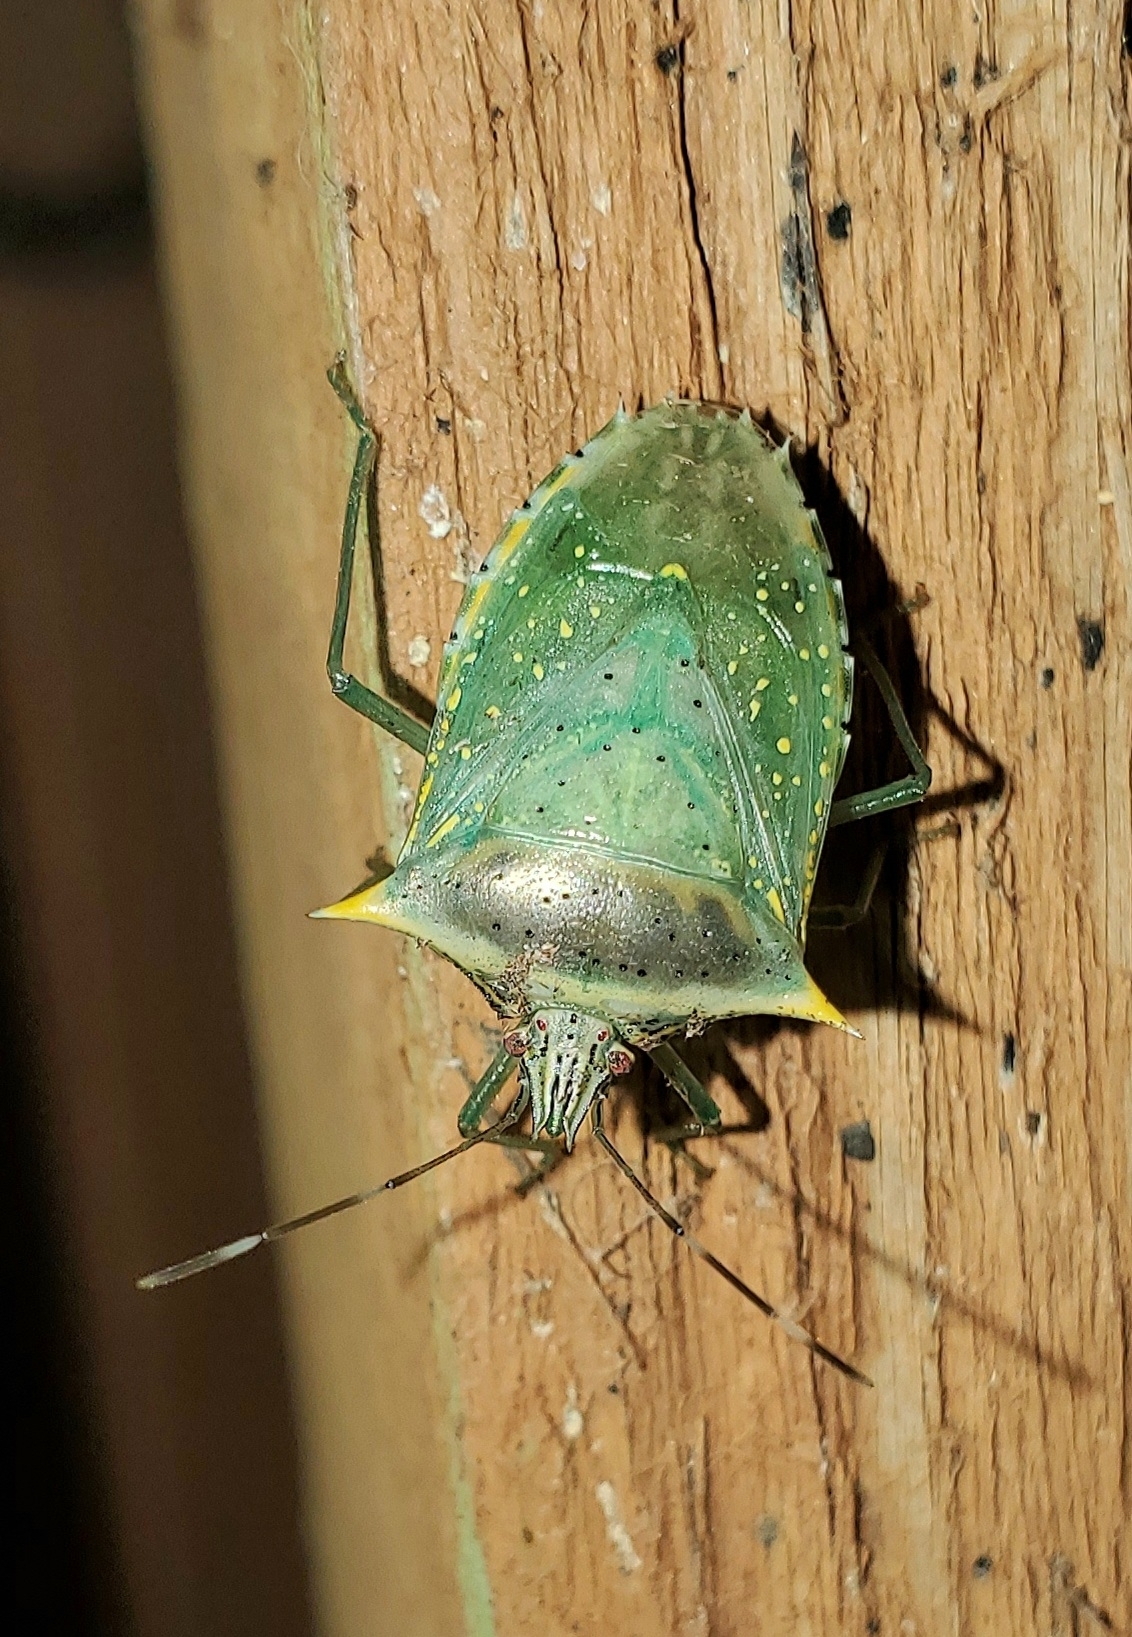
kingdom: Animalia
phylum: Arthropoda
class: Insecta
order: Hemiptera
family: Pentatomidae
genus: Arvelius
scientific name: Arvelius albopunctatus
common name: Tomato stink bug
